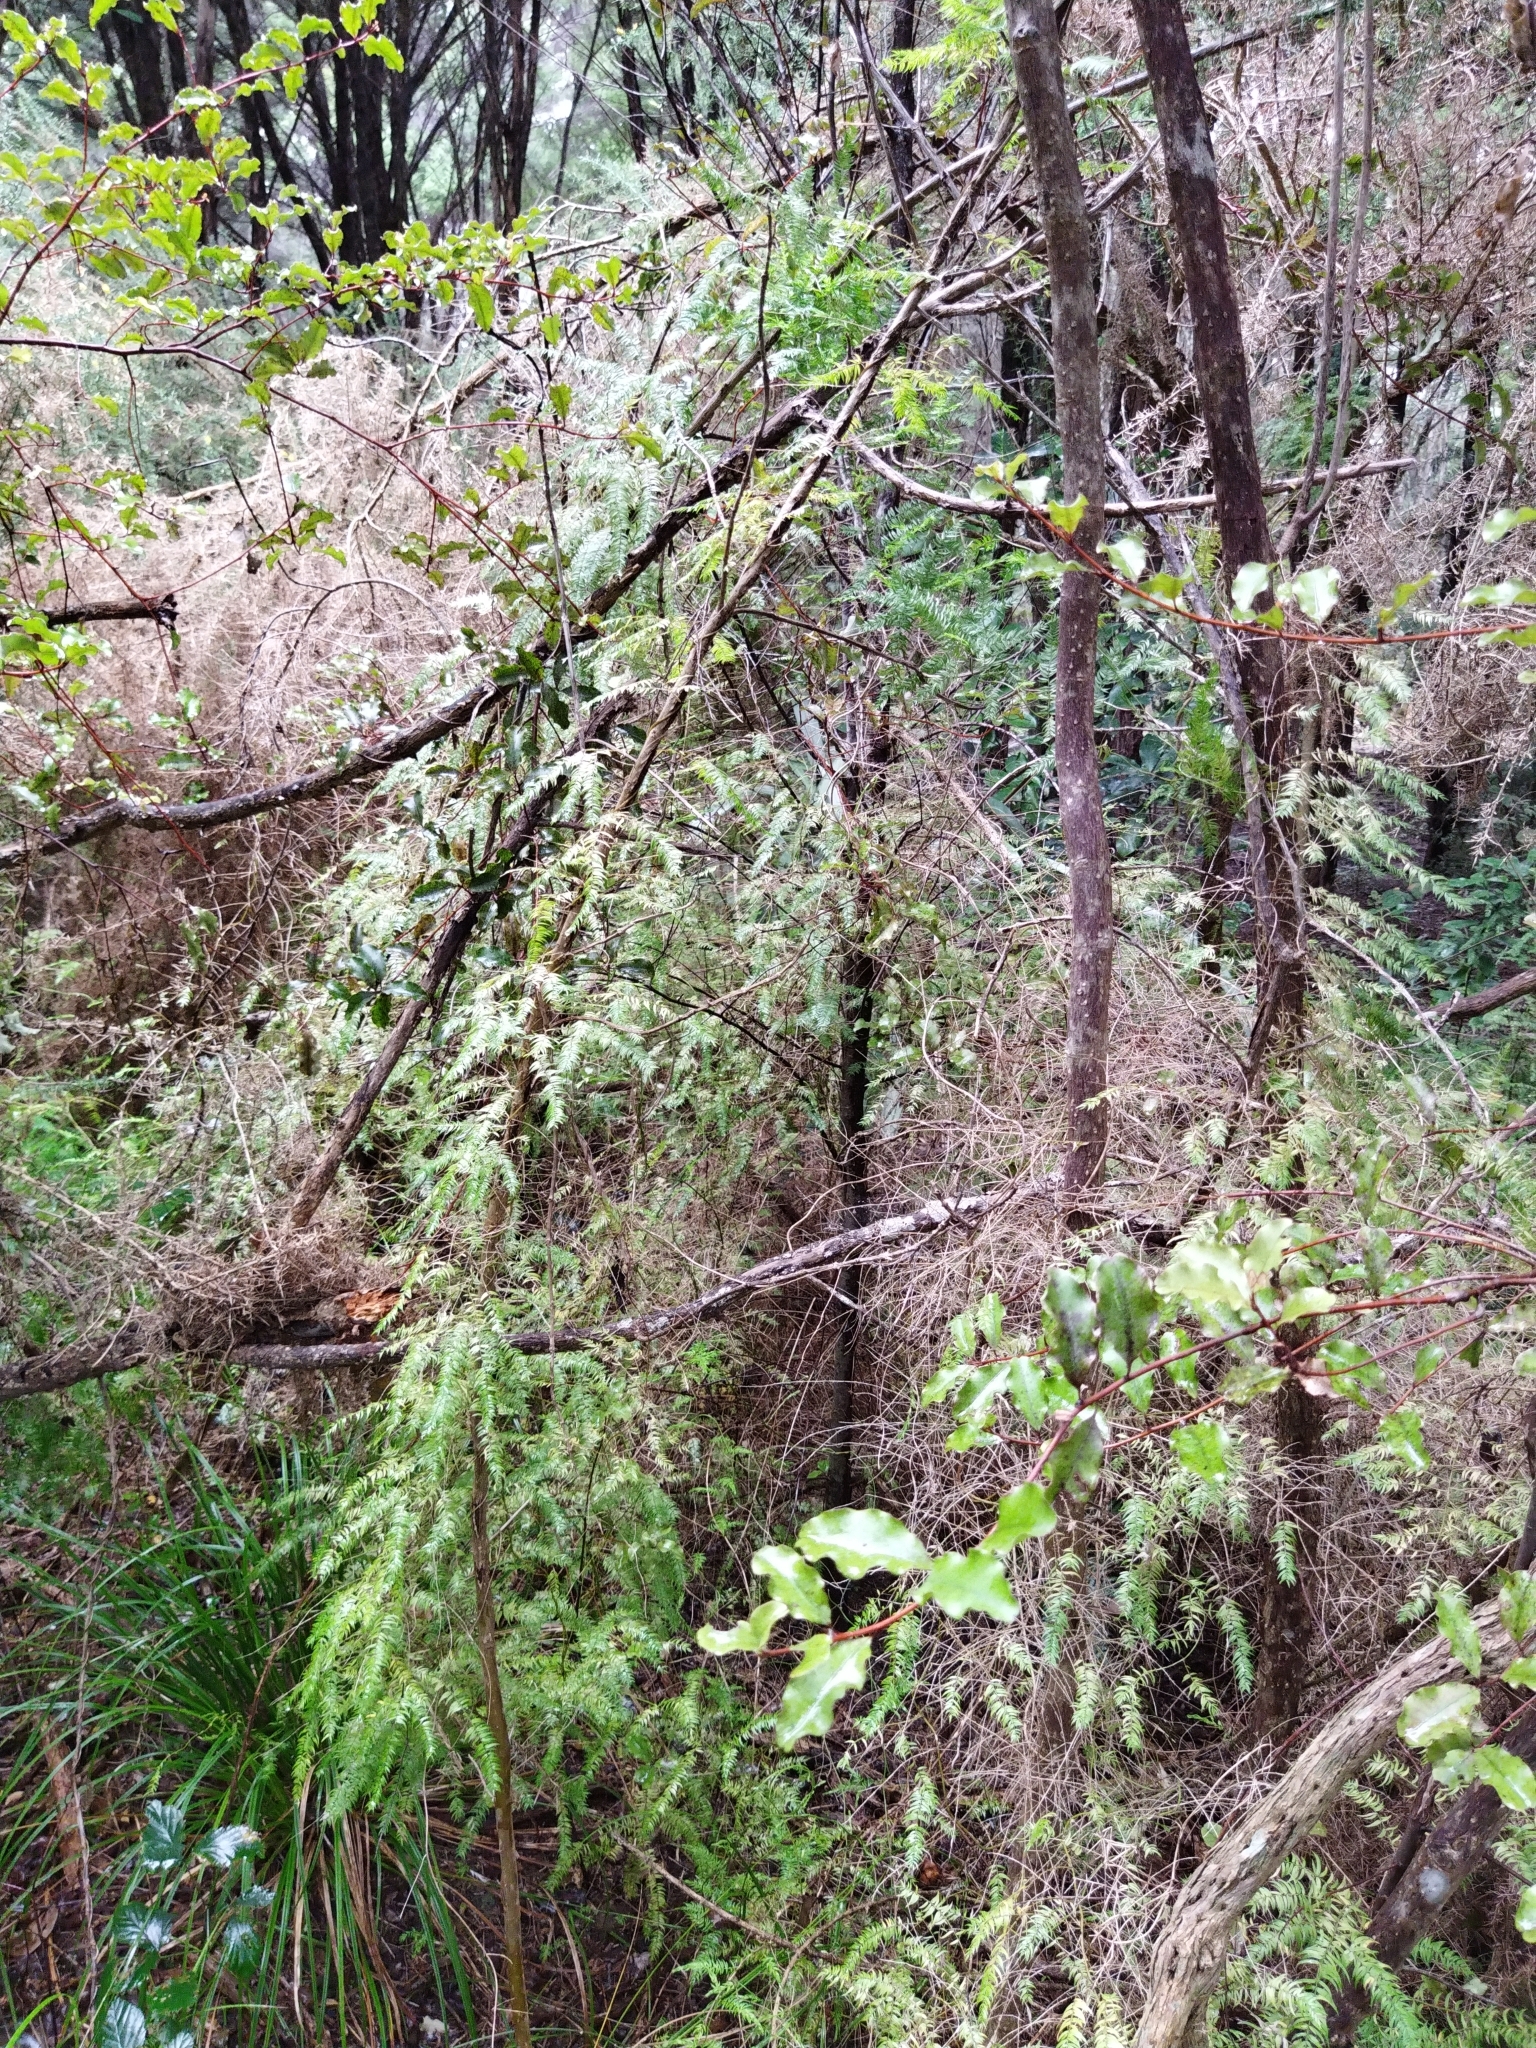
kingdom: Plantae
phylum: Tracheophyta
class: Liliopsida
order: Asparagales
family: Asparagaceae
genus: Asparagus
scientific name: Asparagus scandens
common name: Asparagus-fern
